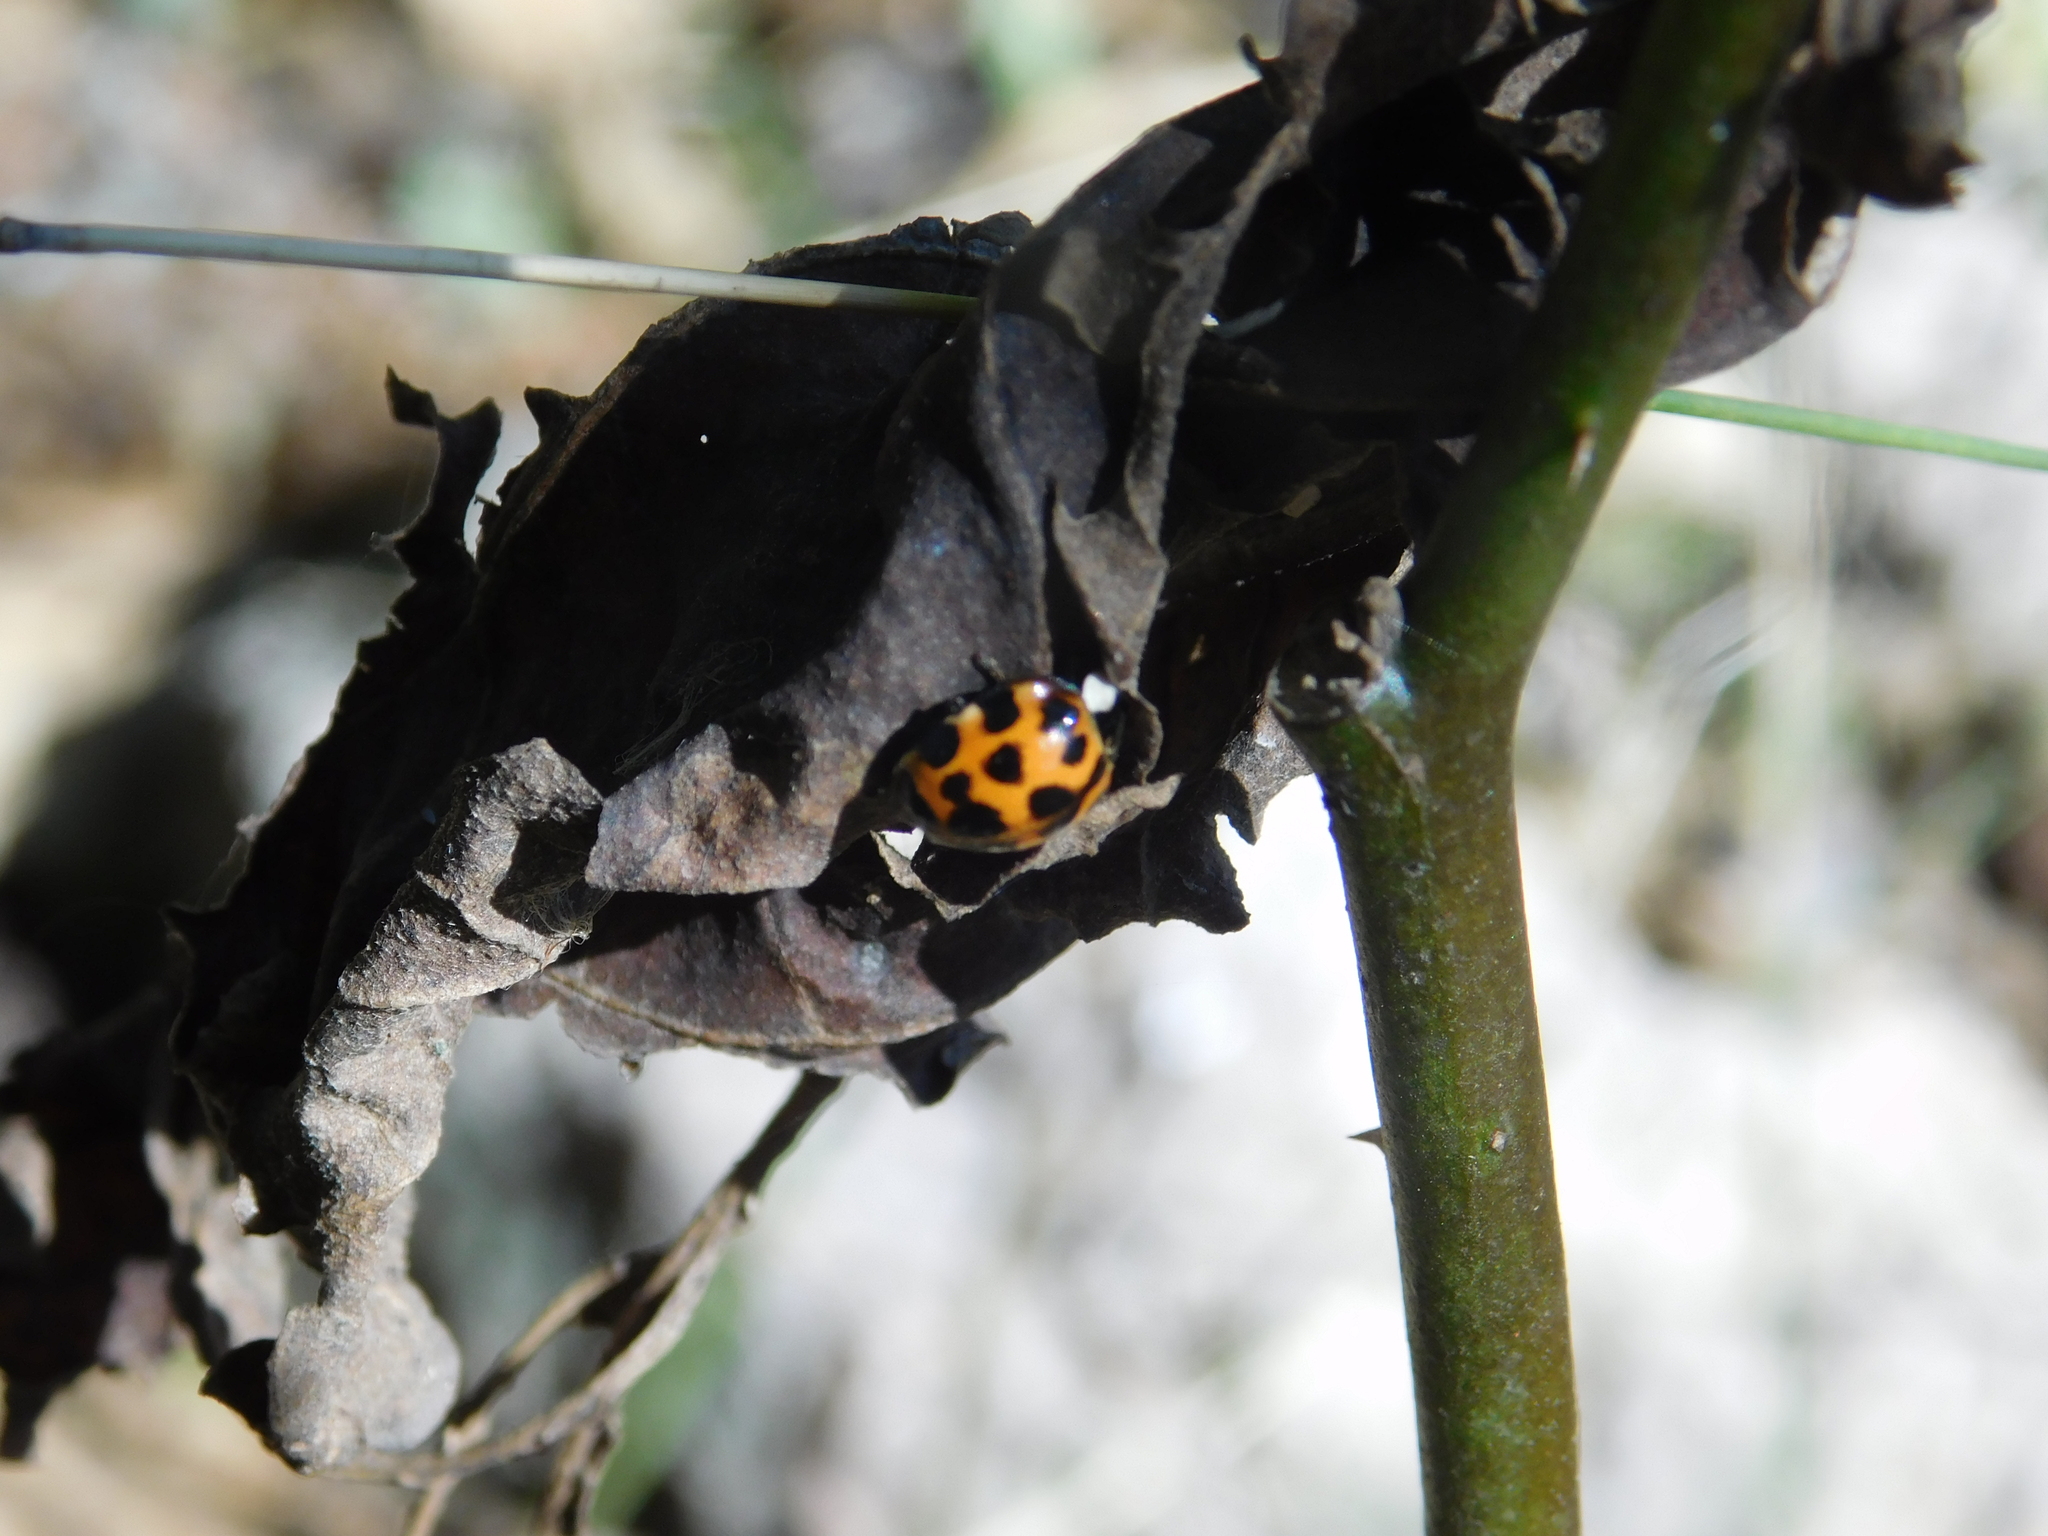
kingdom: Animalia
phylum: Arthropoda
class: Insecta
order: Coleoptera
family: Coccinellidae
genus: Harmonia
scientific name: Harmonia axyridis
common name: Harlequin ladybird
